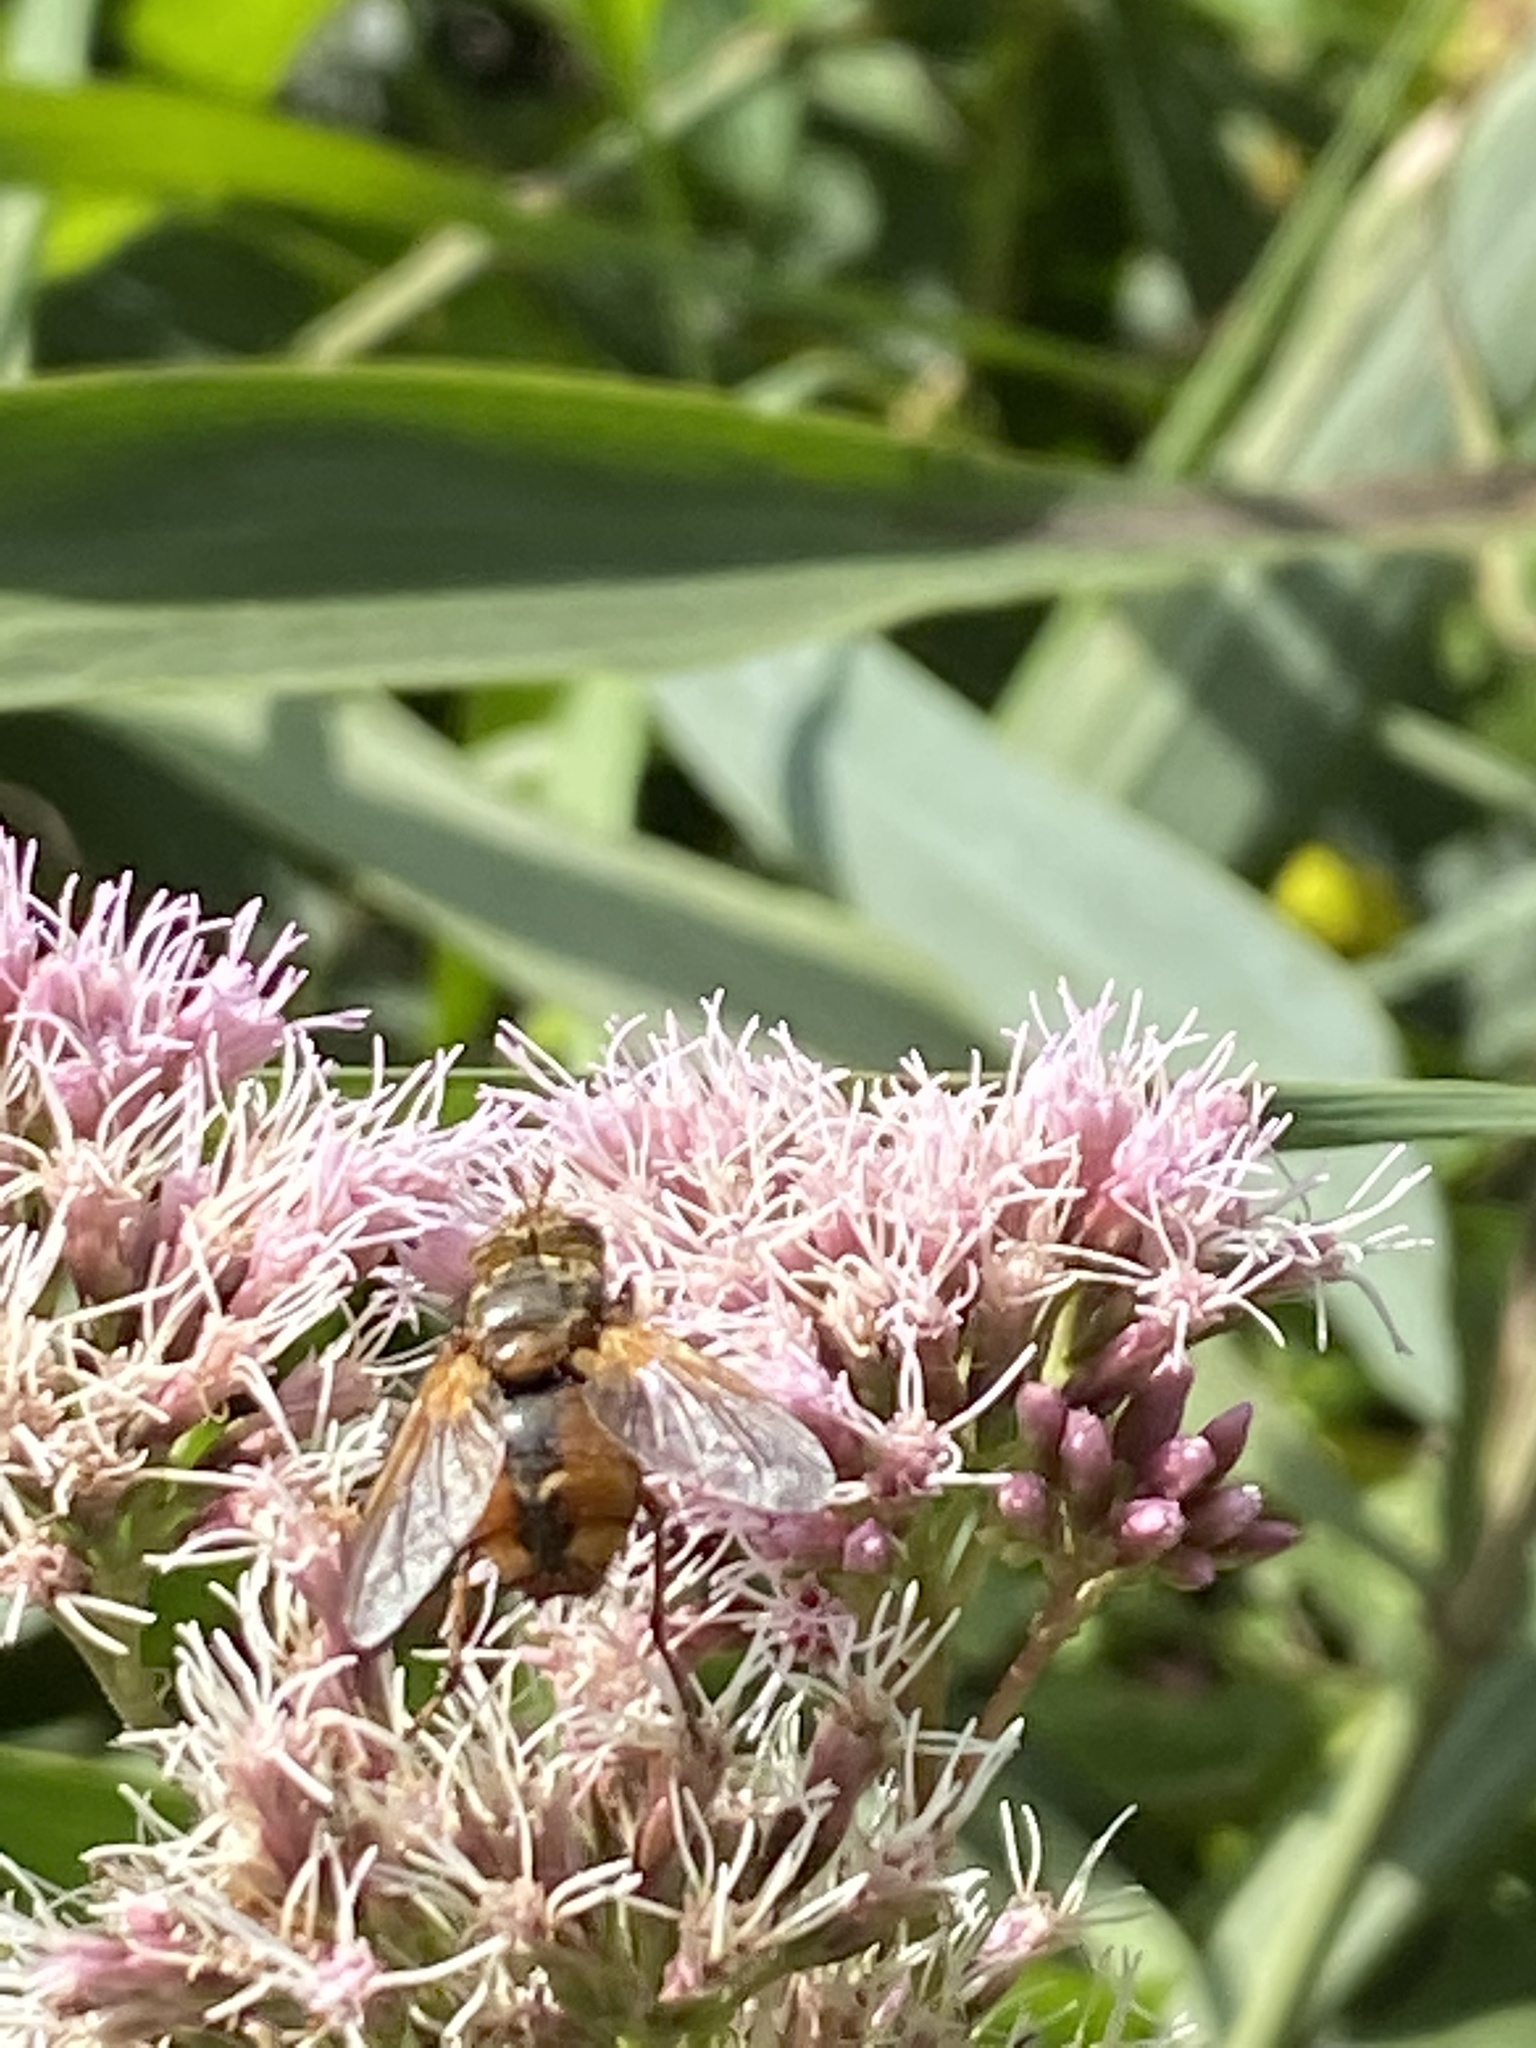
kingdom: Animalia
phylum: Arthropoda
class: Insecta
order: Diptera
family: Tachinidae
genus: Tachina
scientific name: Tachina fera
